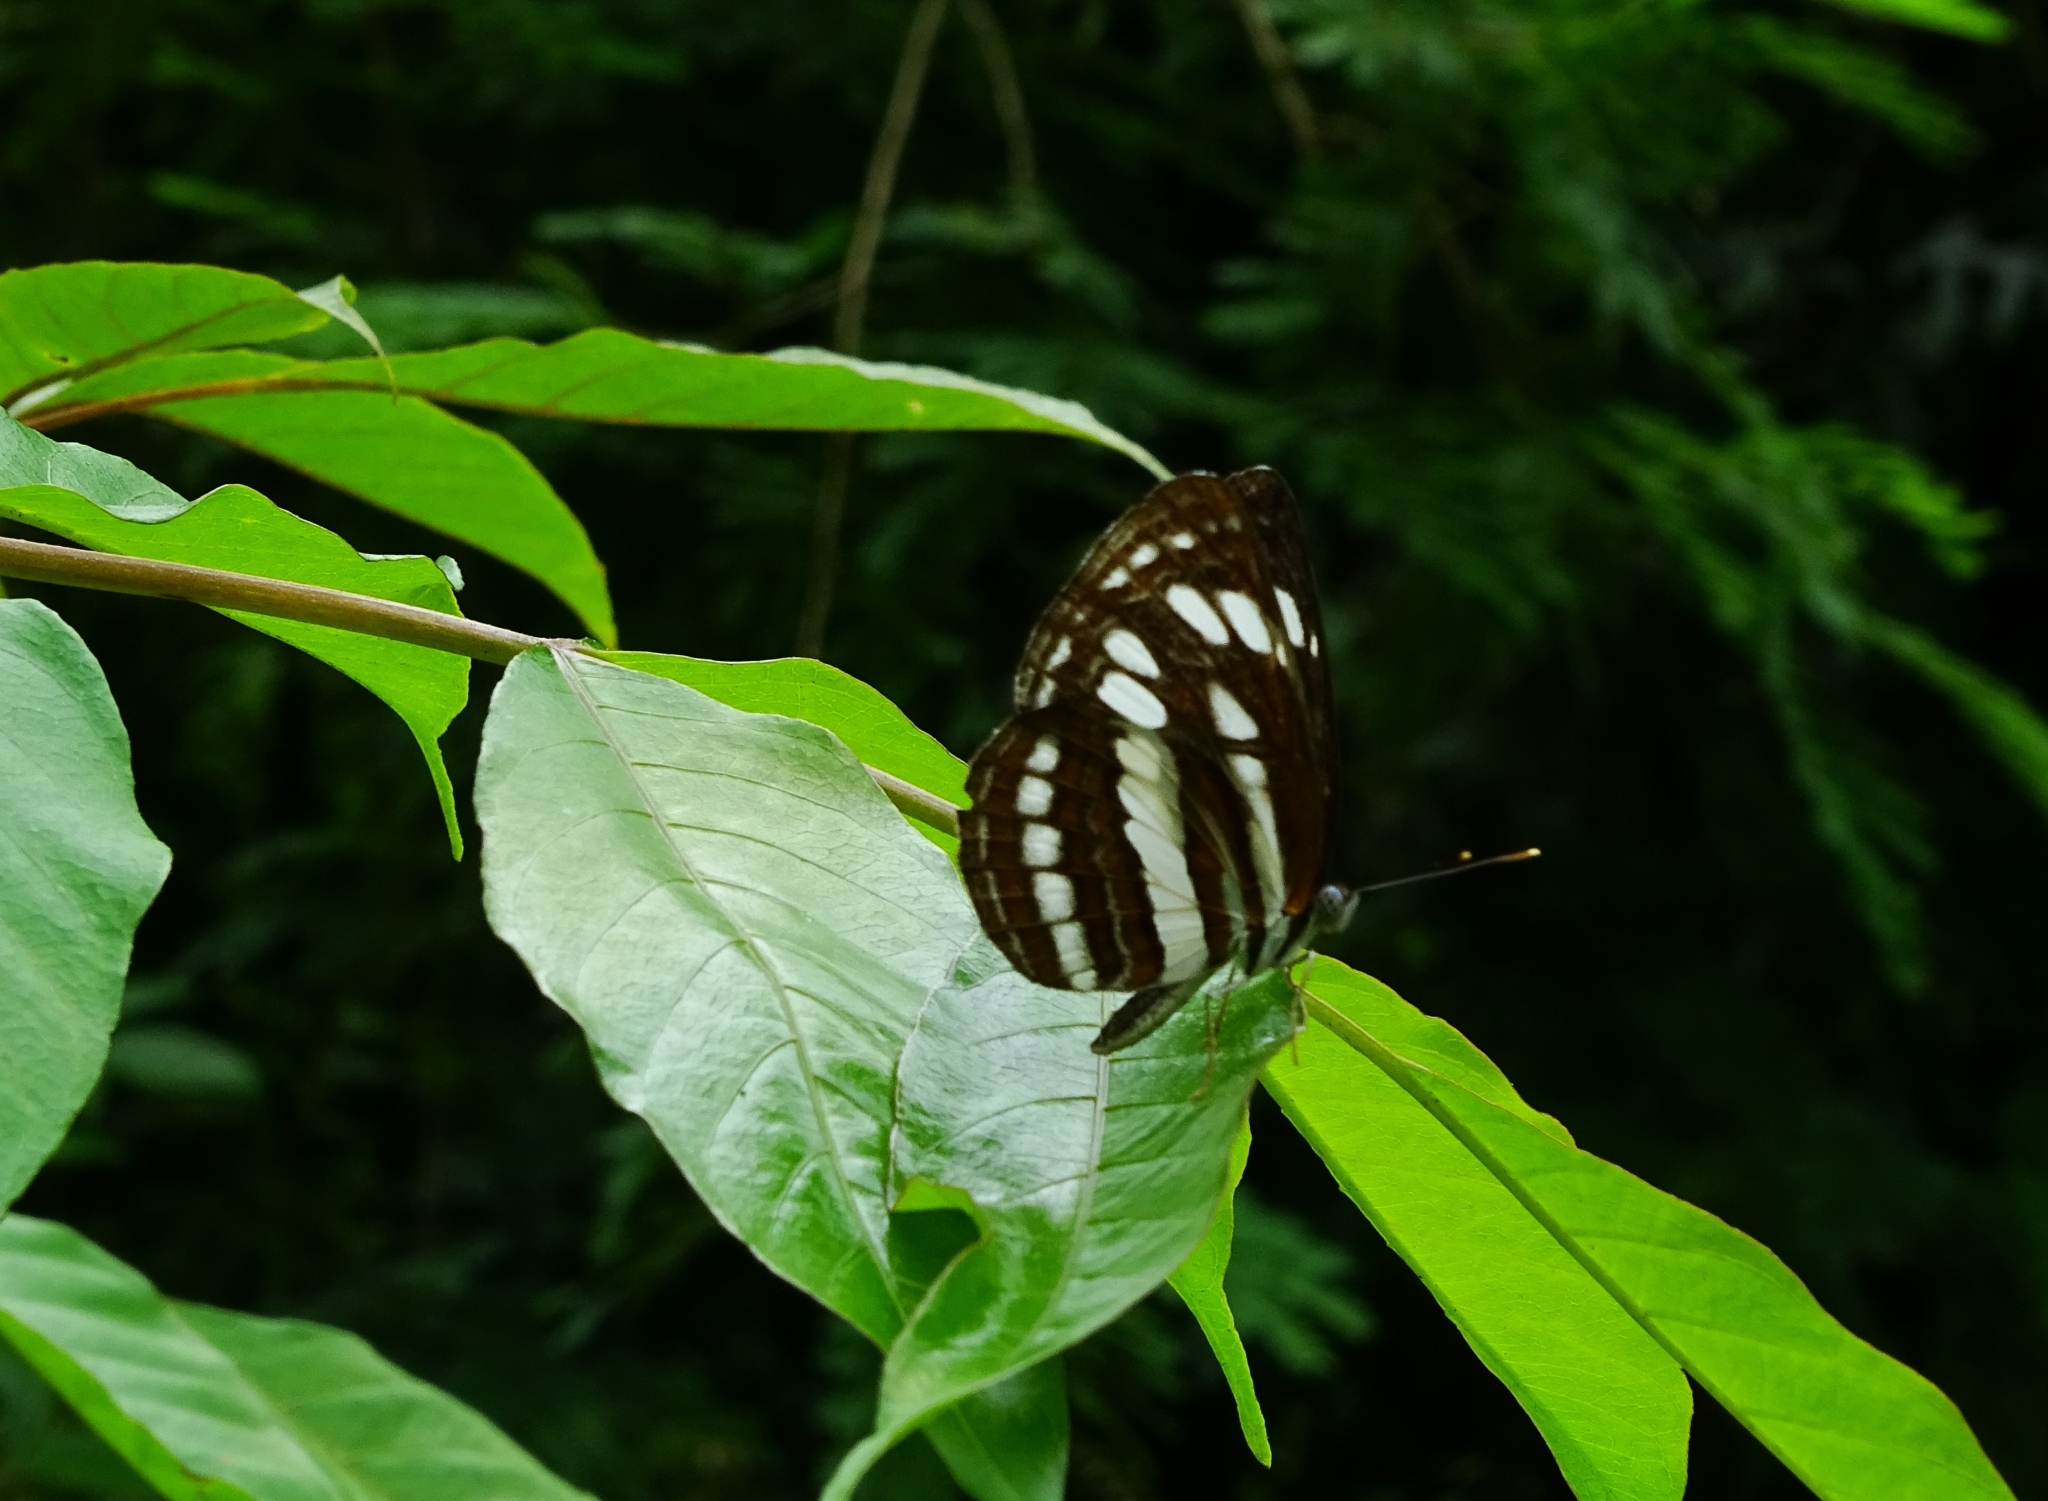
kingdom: Animalia
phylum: Arthropoda
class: Insecta
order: Lepidoptera
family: Nymphalidae
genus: Neptis
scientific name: Neptis hylas
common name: Common sailer
